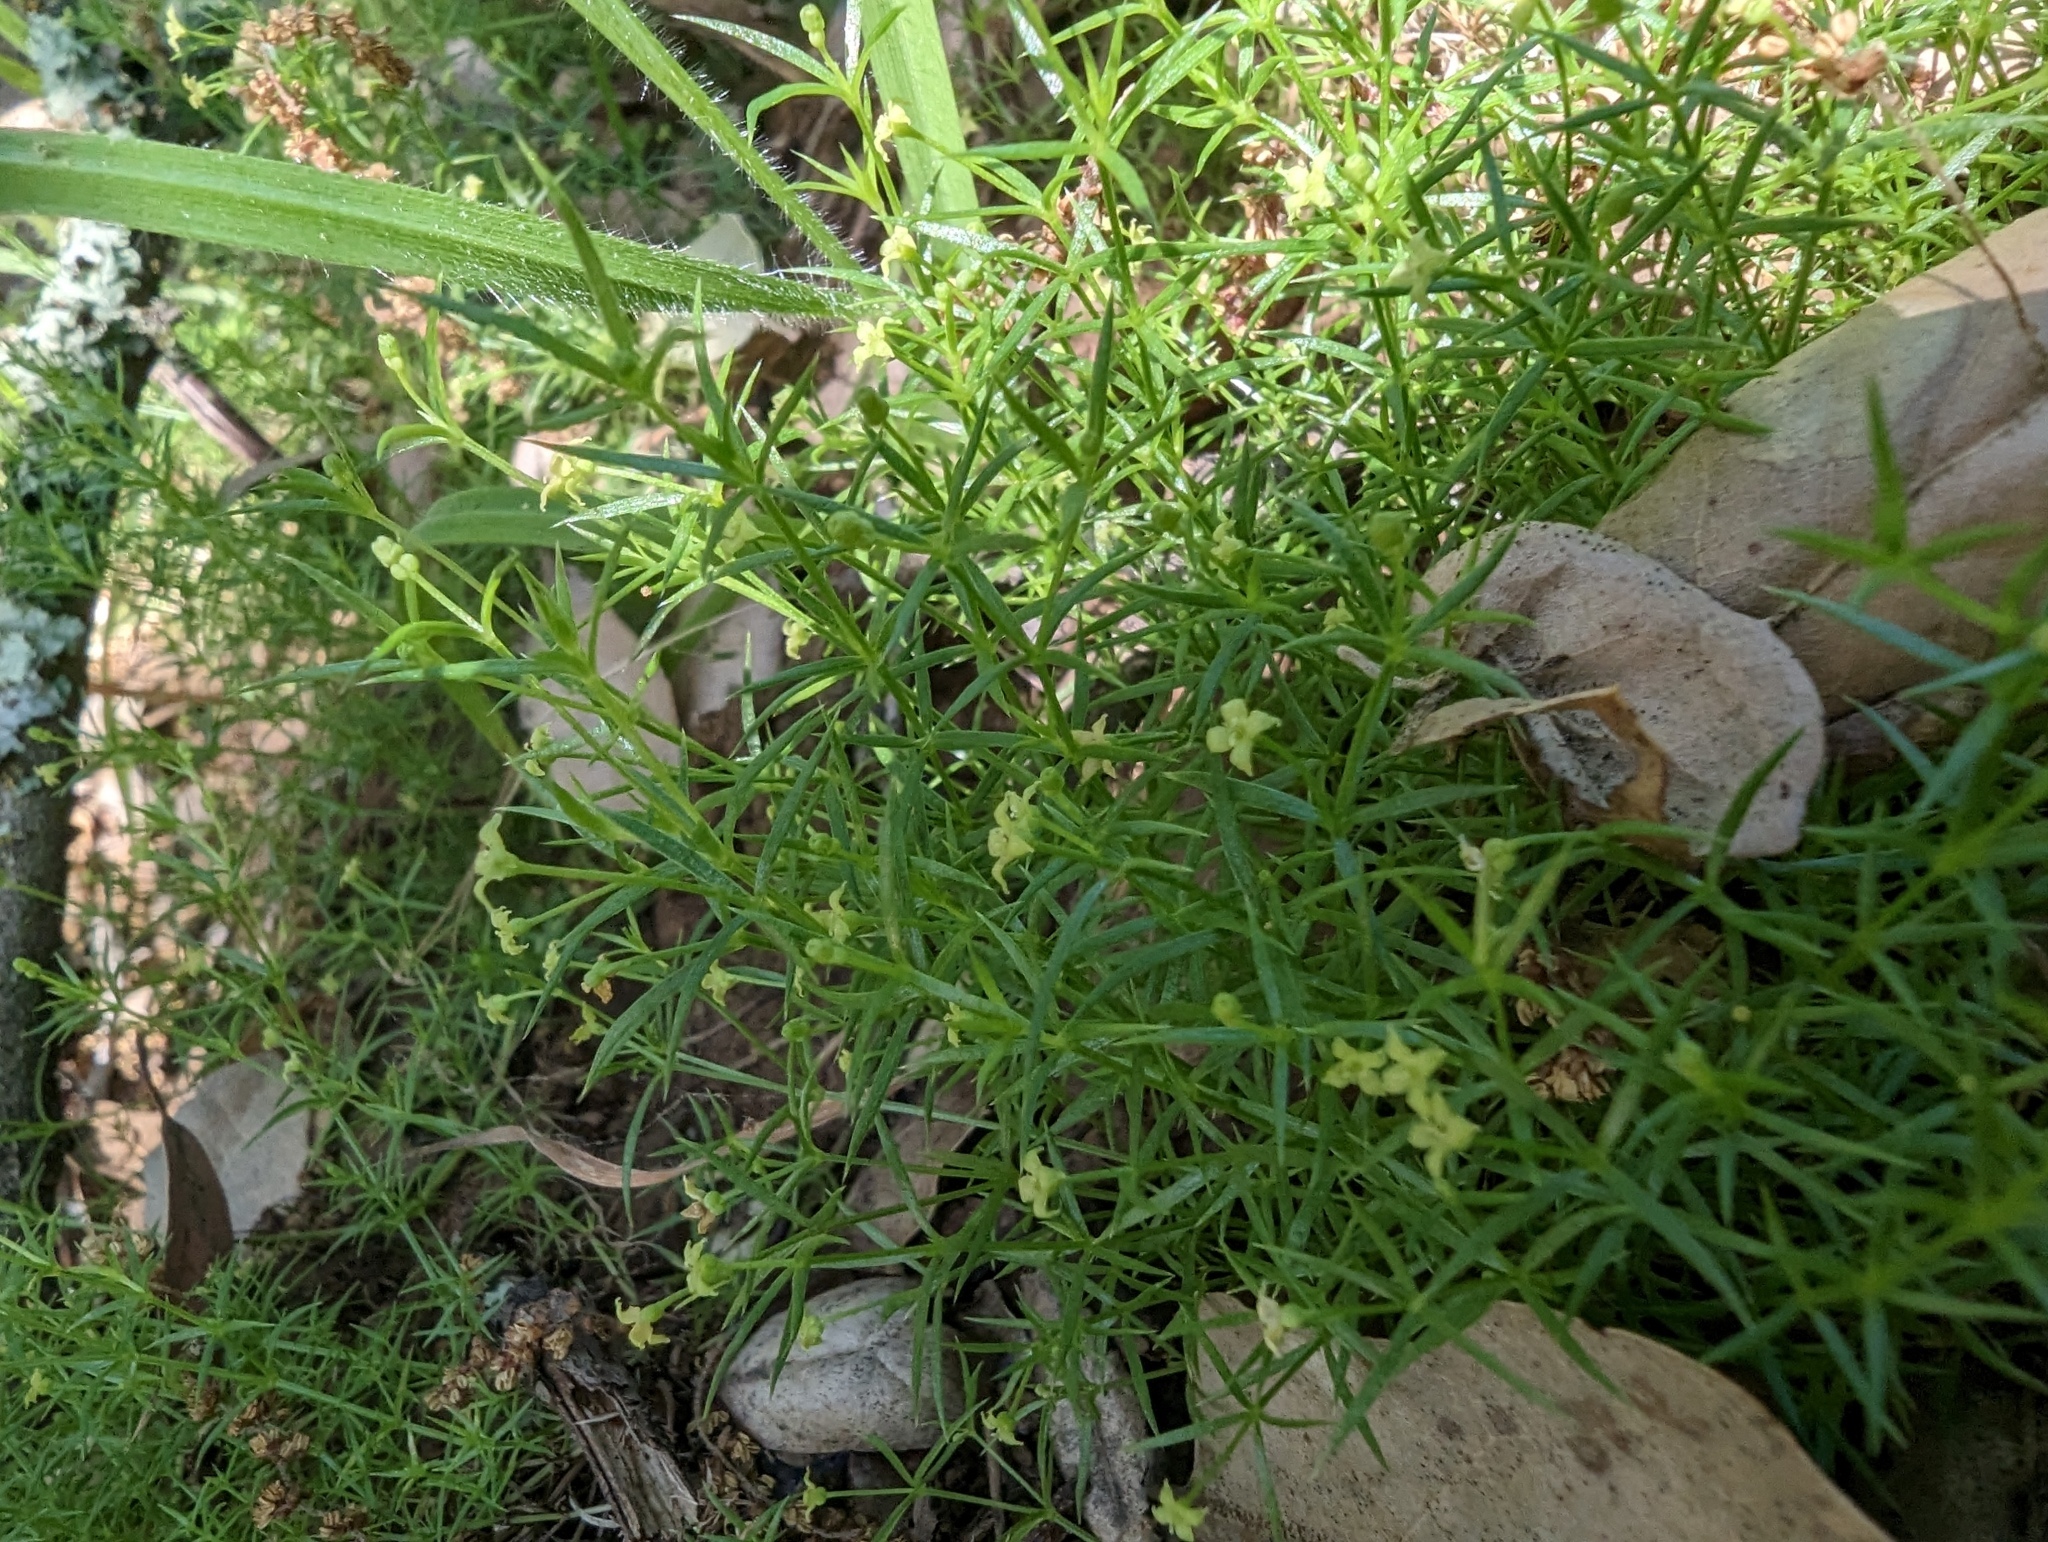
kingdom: Plantae
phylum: Tracheophyta
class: Magnoliopsida
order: Gentianales
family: Rubiaceae
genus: Galium
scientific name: Galium andrewsii
